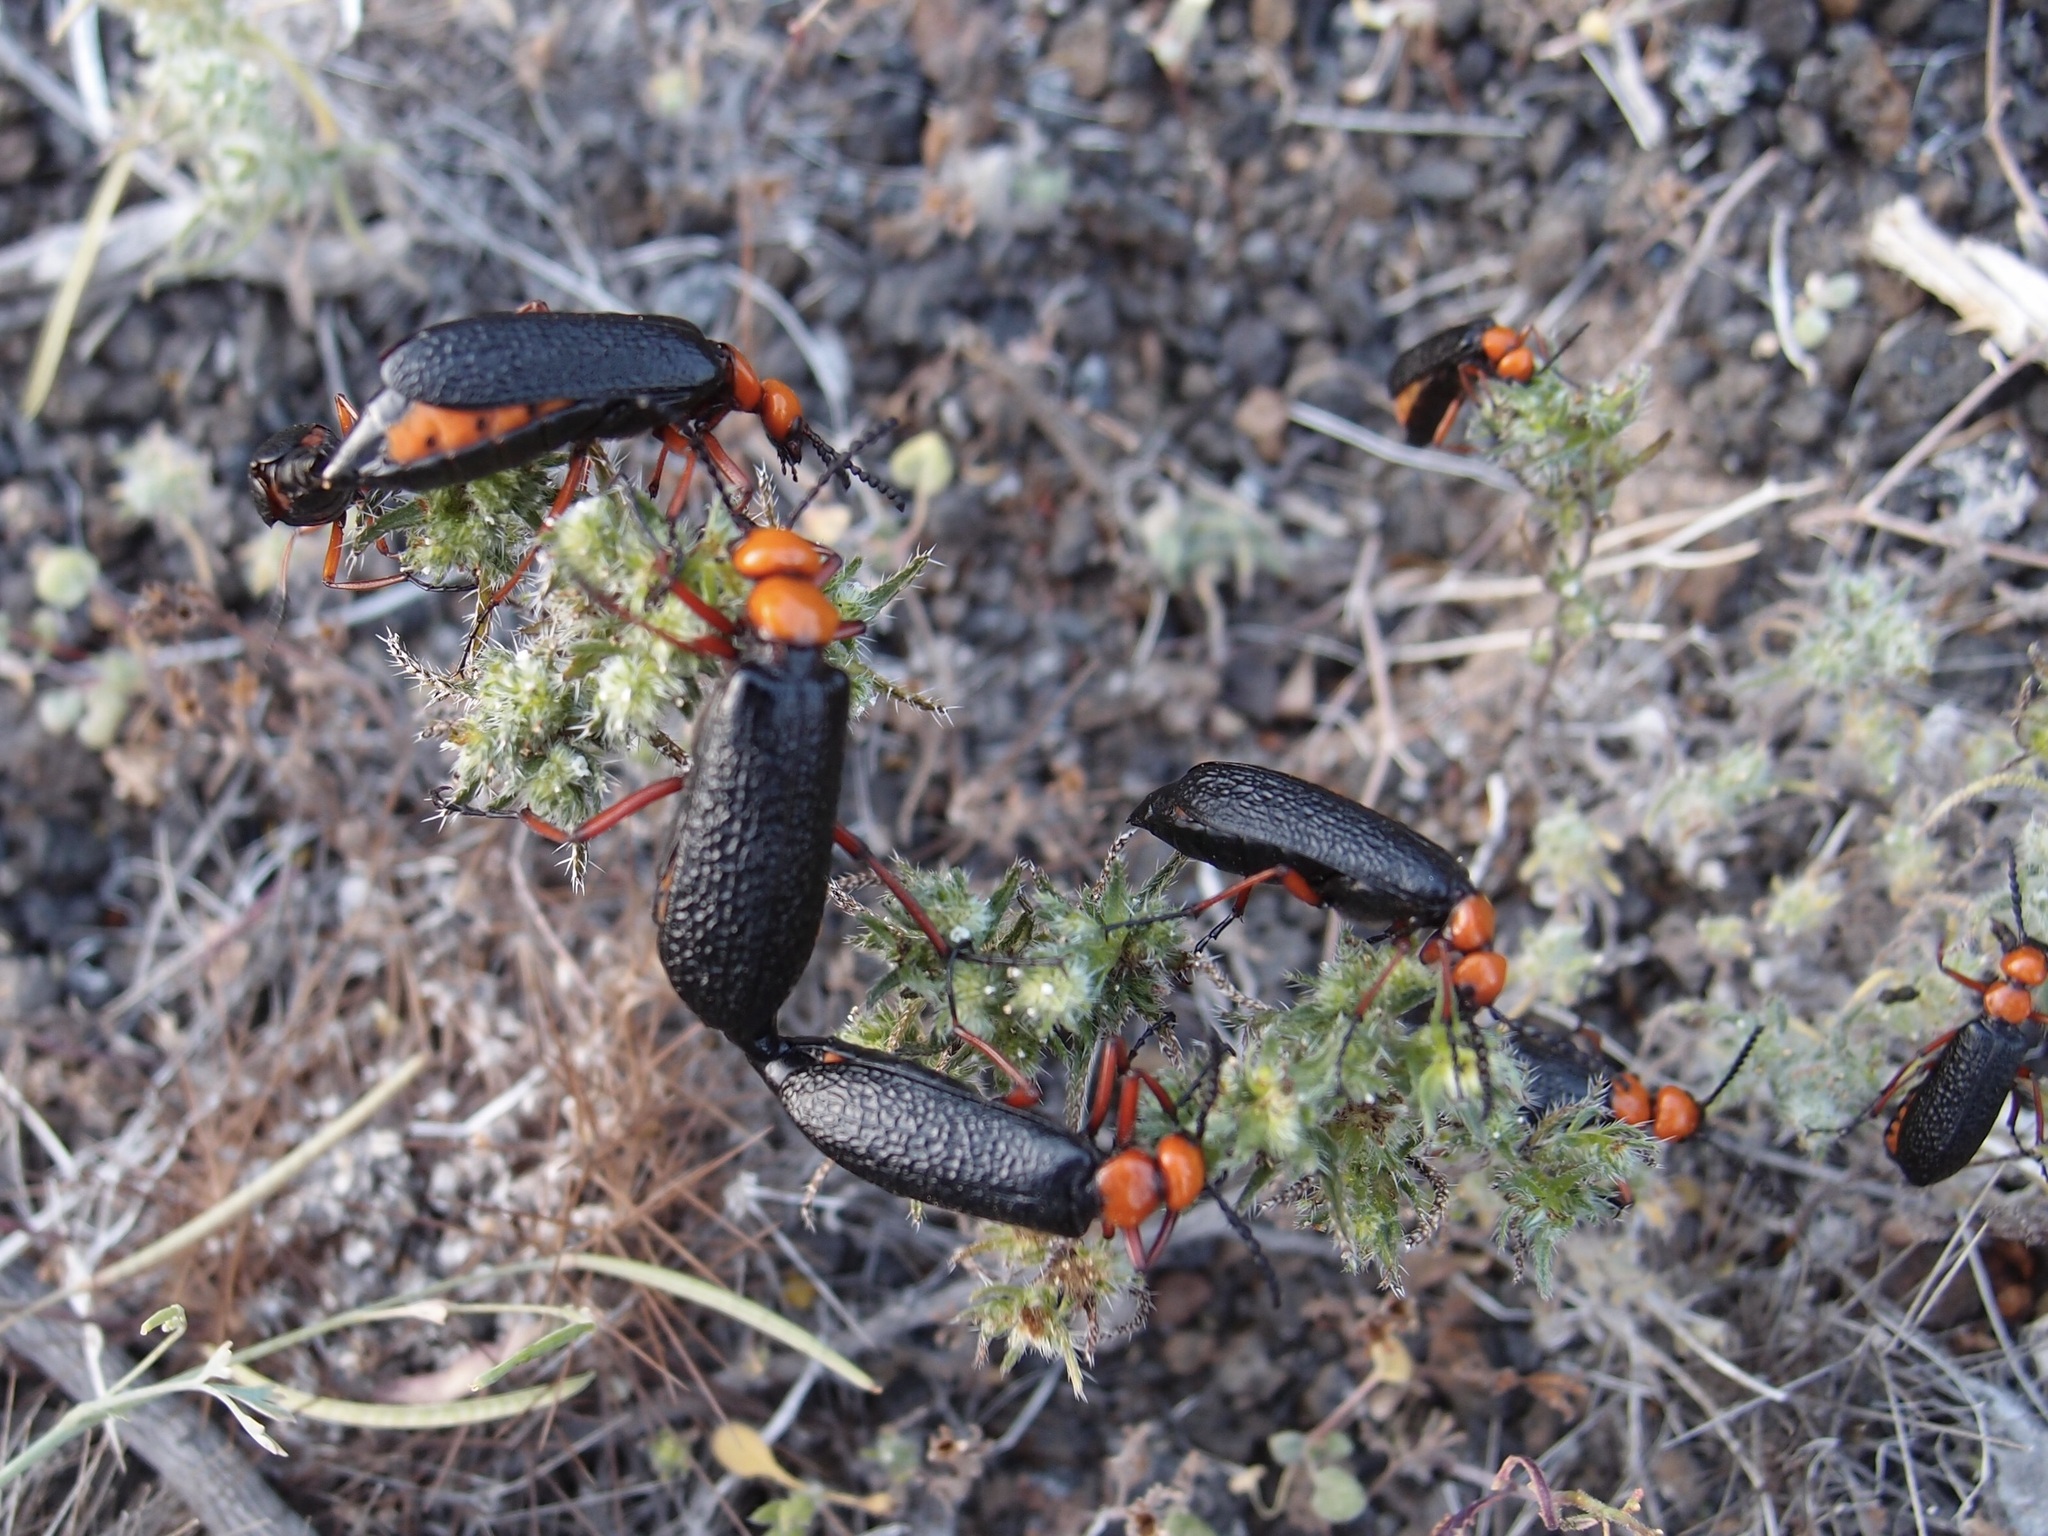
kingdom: Animalia
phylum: Arthropoda
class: Insecta
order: Coleoptera
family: Meloidae
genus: Lytta
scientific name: Lytta magister
